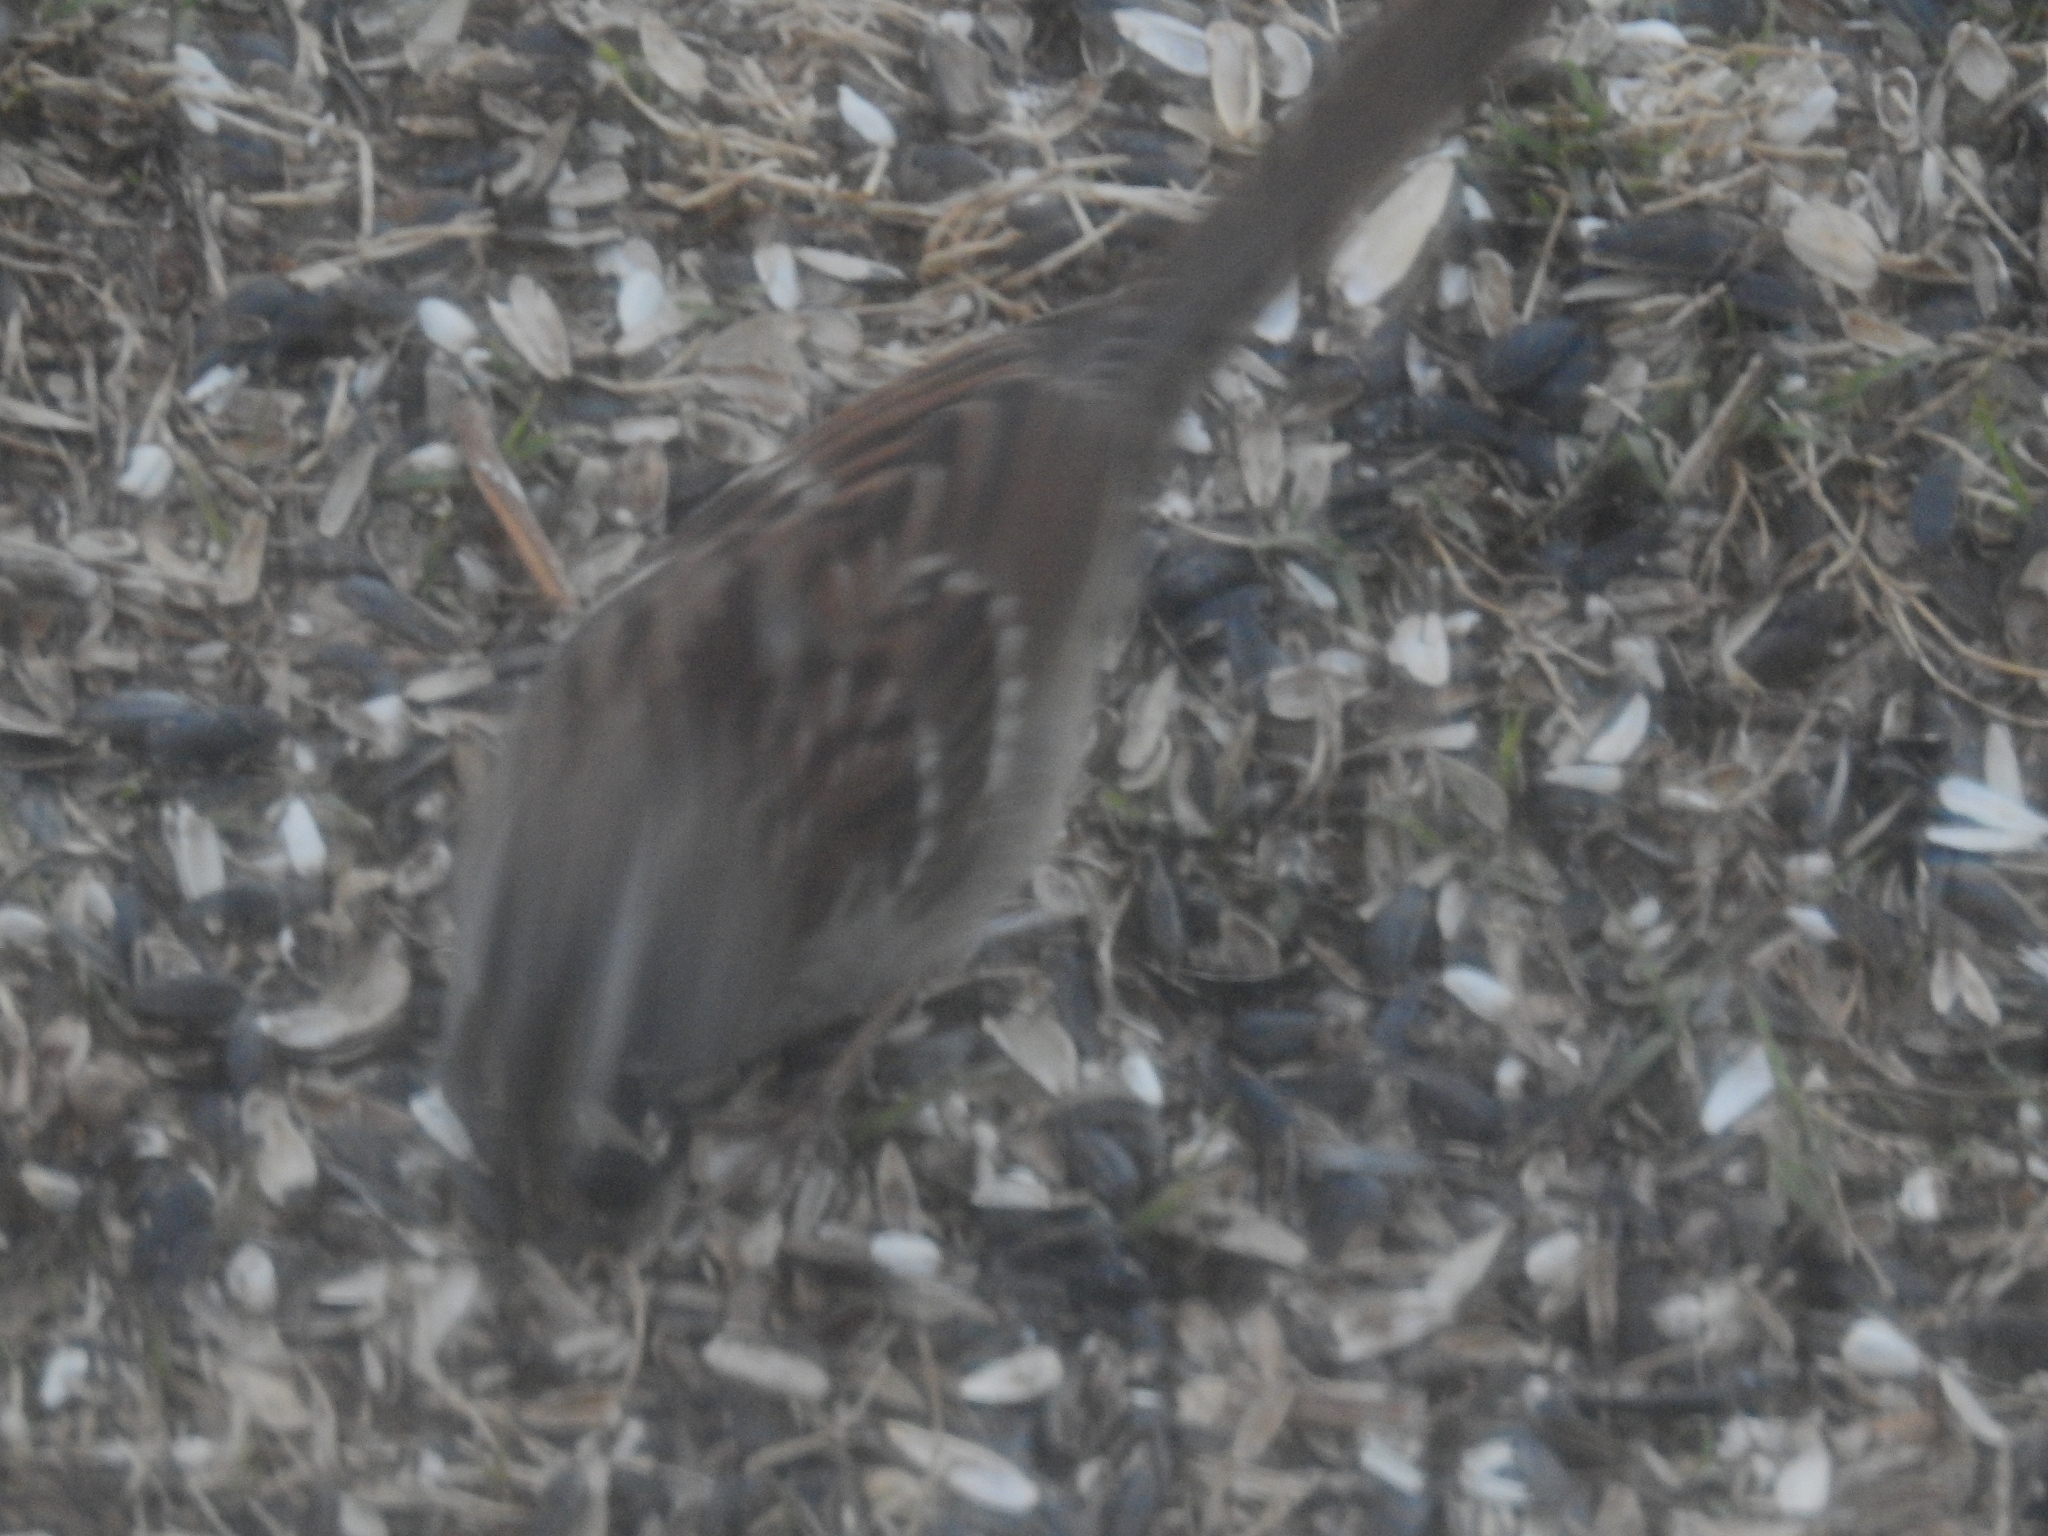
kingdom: Animalia
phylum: Chordata
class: Aves
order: Passeriformes
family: Passerellidae
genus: Zonotrichia
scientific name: Zonotrichia albicollis
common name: White-throated sparrow
